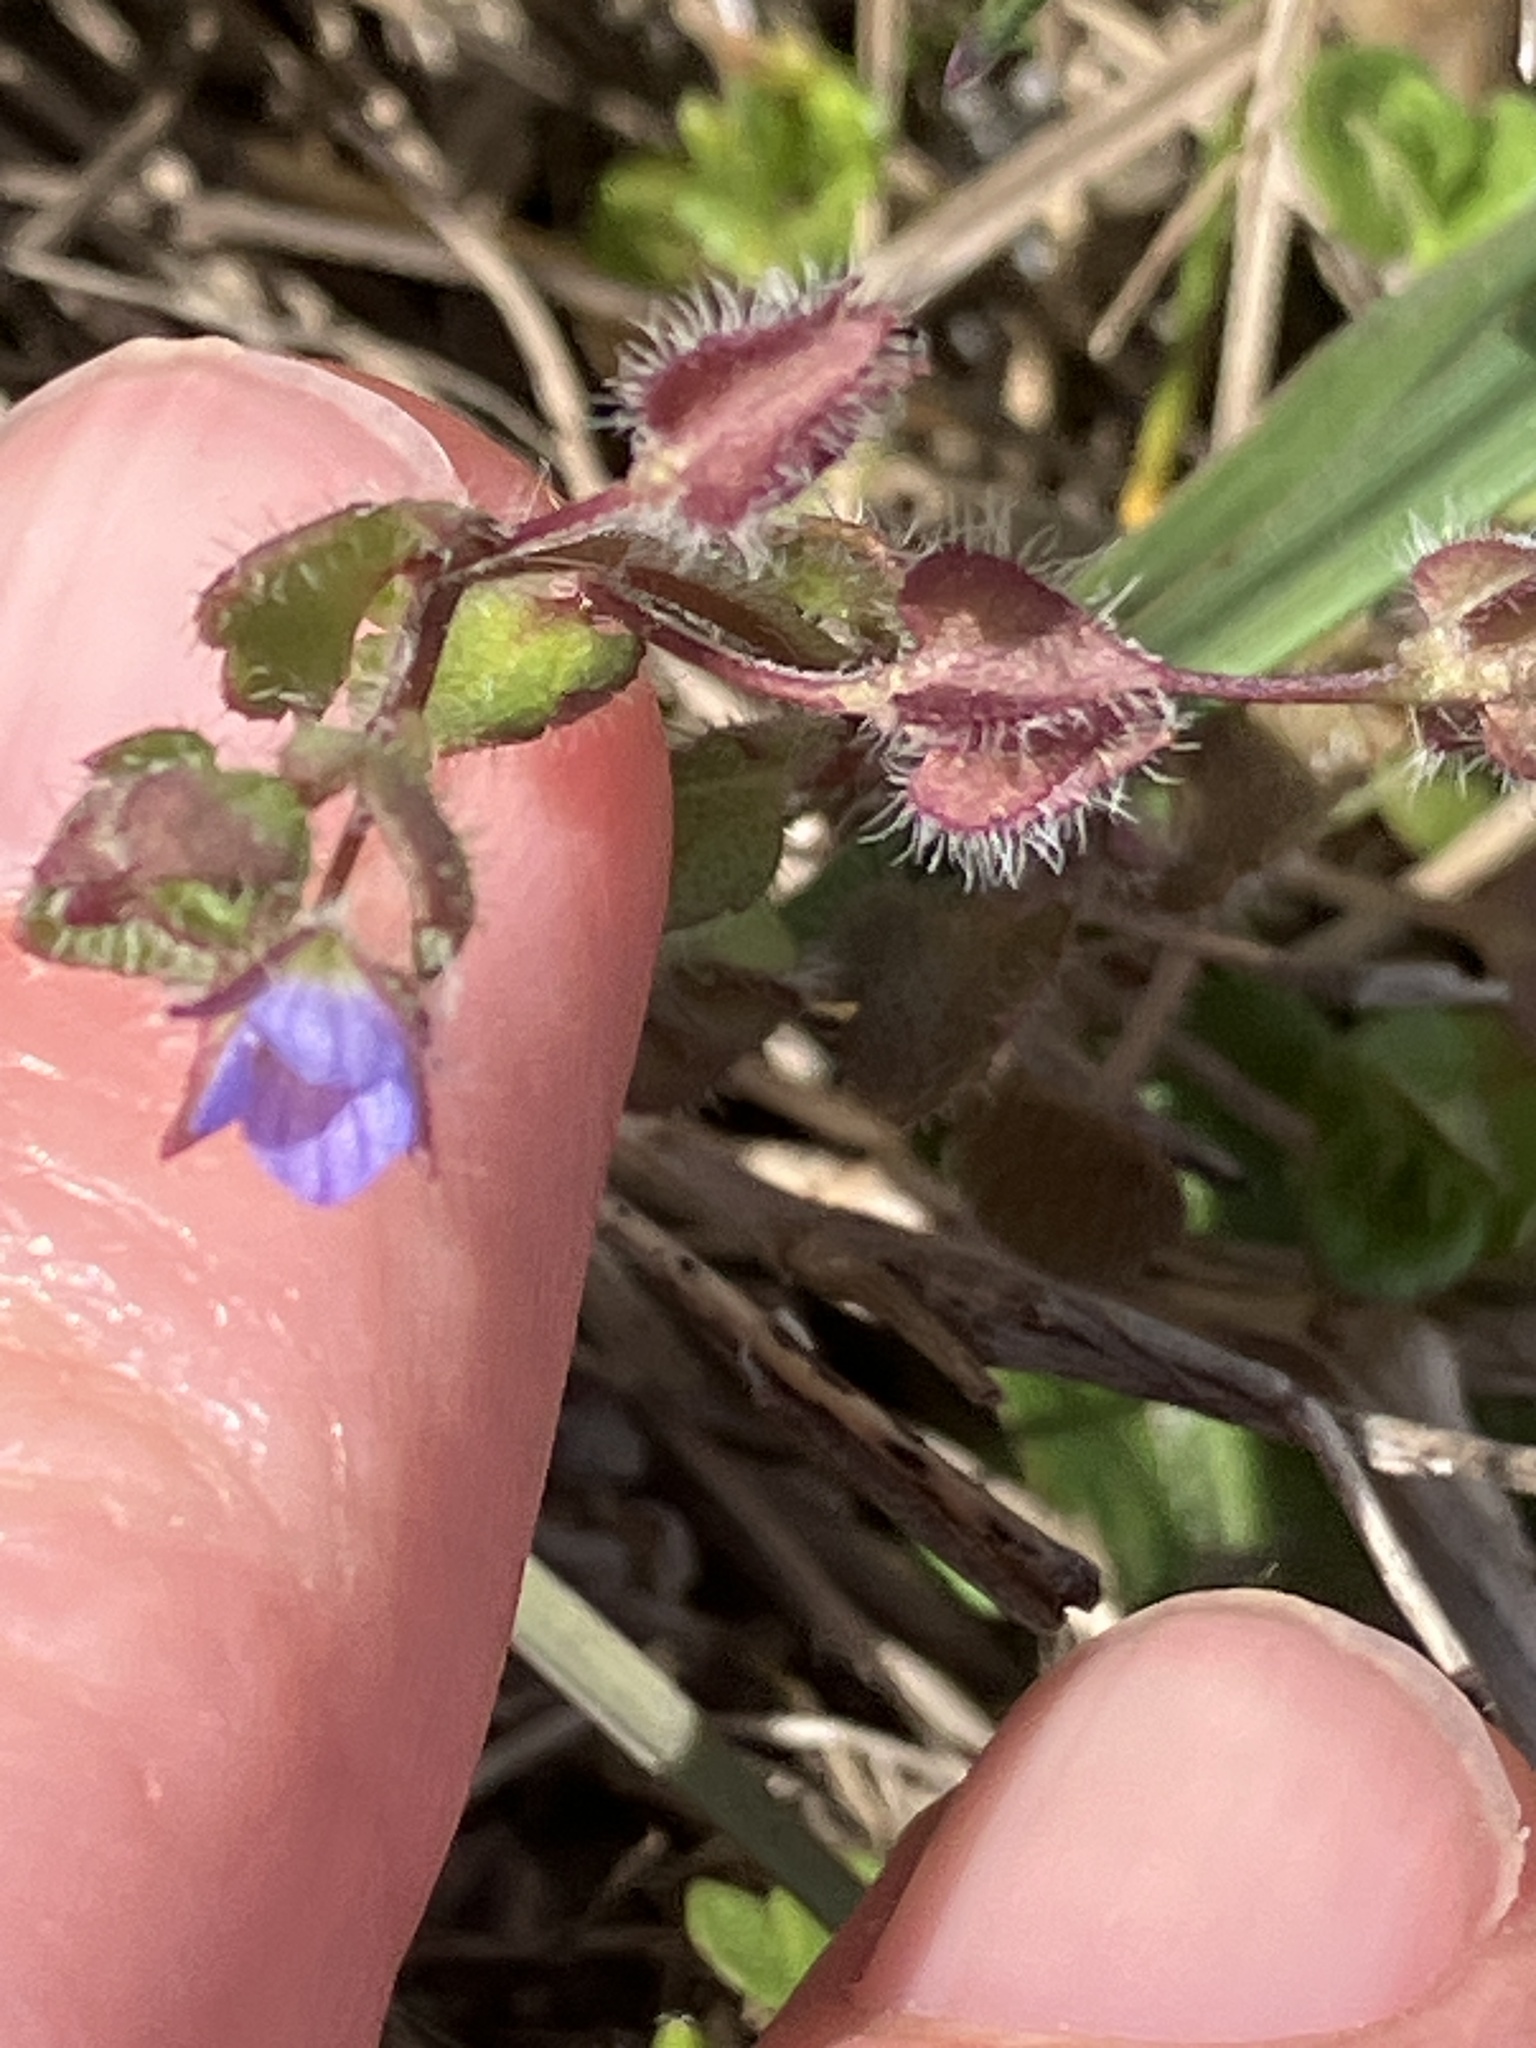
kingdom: Plantae
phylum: Tracheophyta
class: Magnoliopsida
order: Lamiales
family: Plantaginaceae
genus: Veronica
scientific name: Veronica hederifolia
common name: Ivy-leaved speedwell
